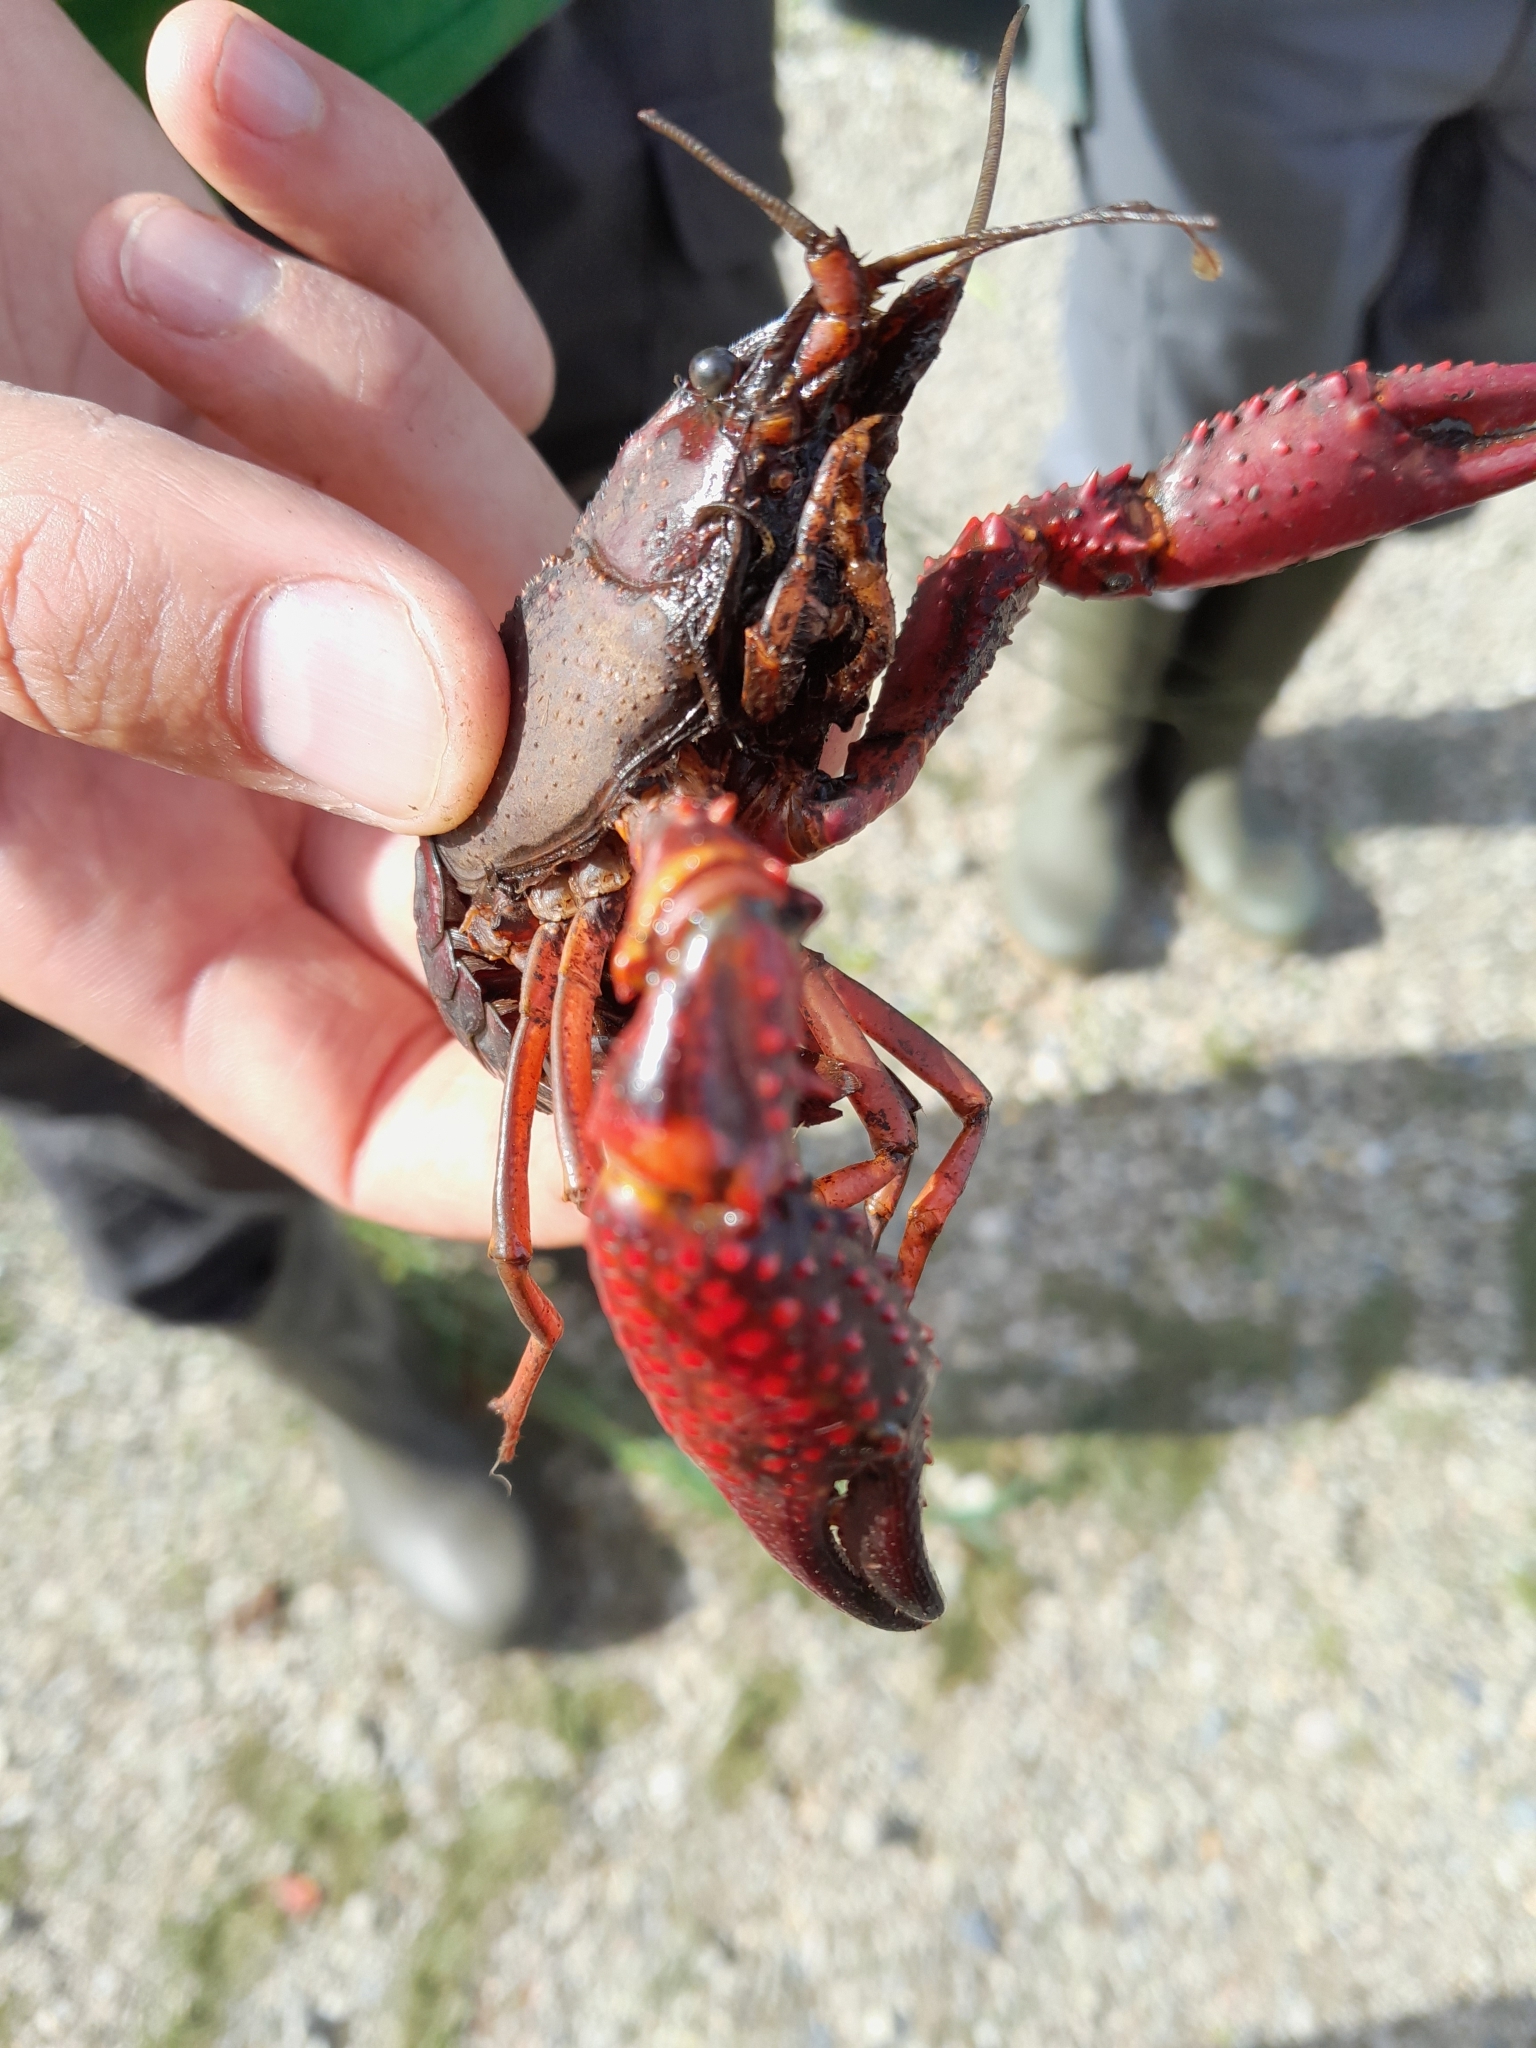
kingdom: Animalia
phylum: Arthropoda
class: Malacostraca
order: Decapoda
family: Cambaridae
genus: Procambarus
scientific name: Procambarus clarkii
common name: Red swamp crayfish
